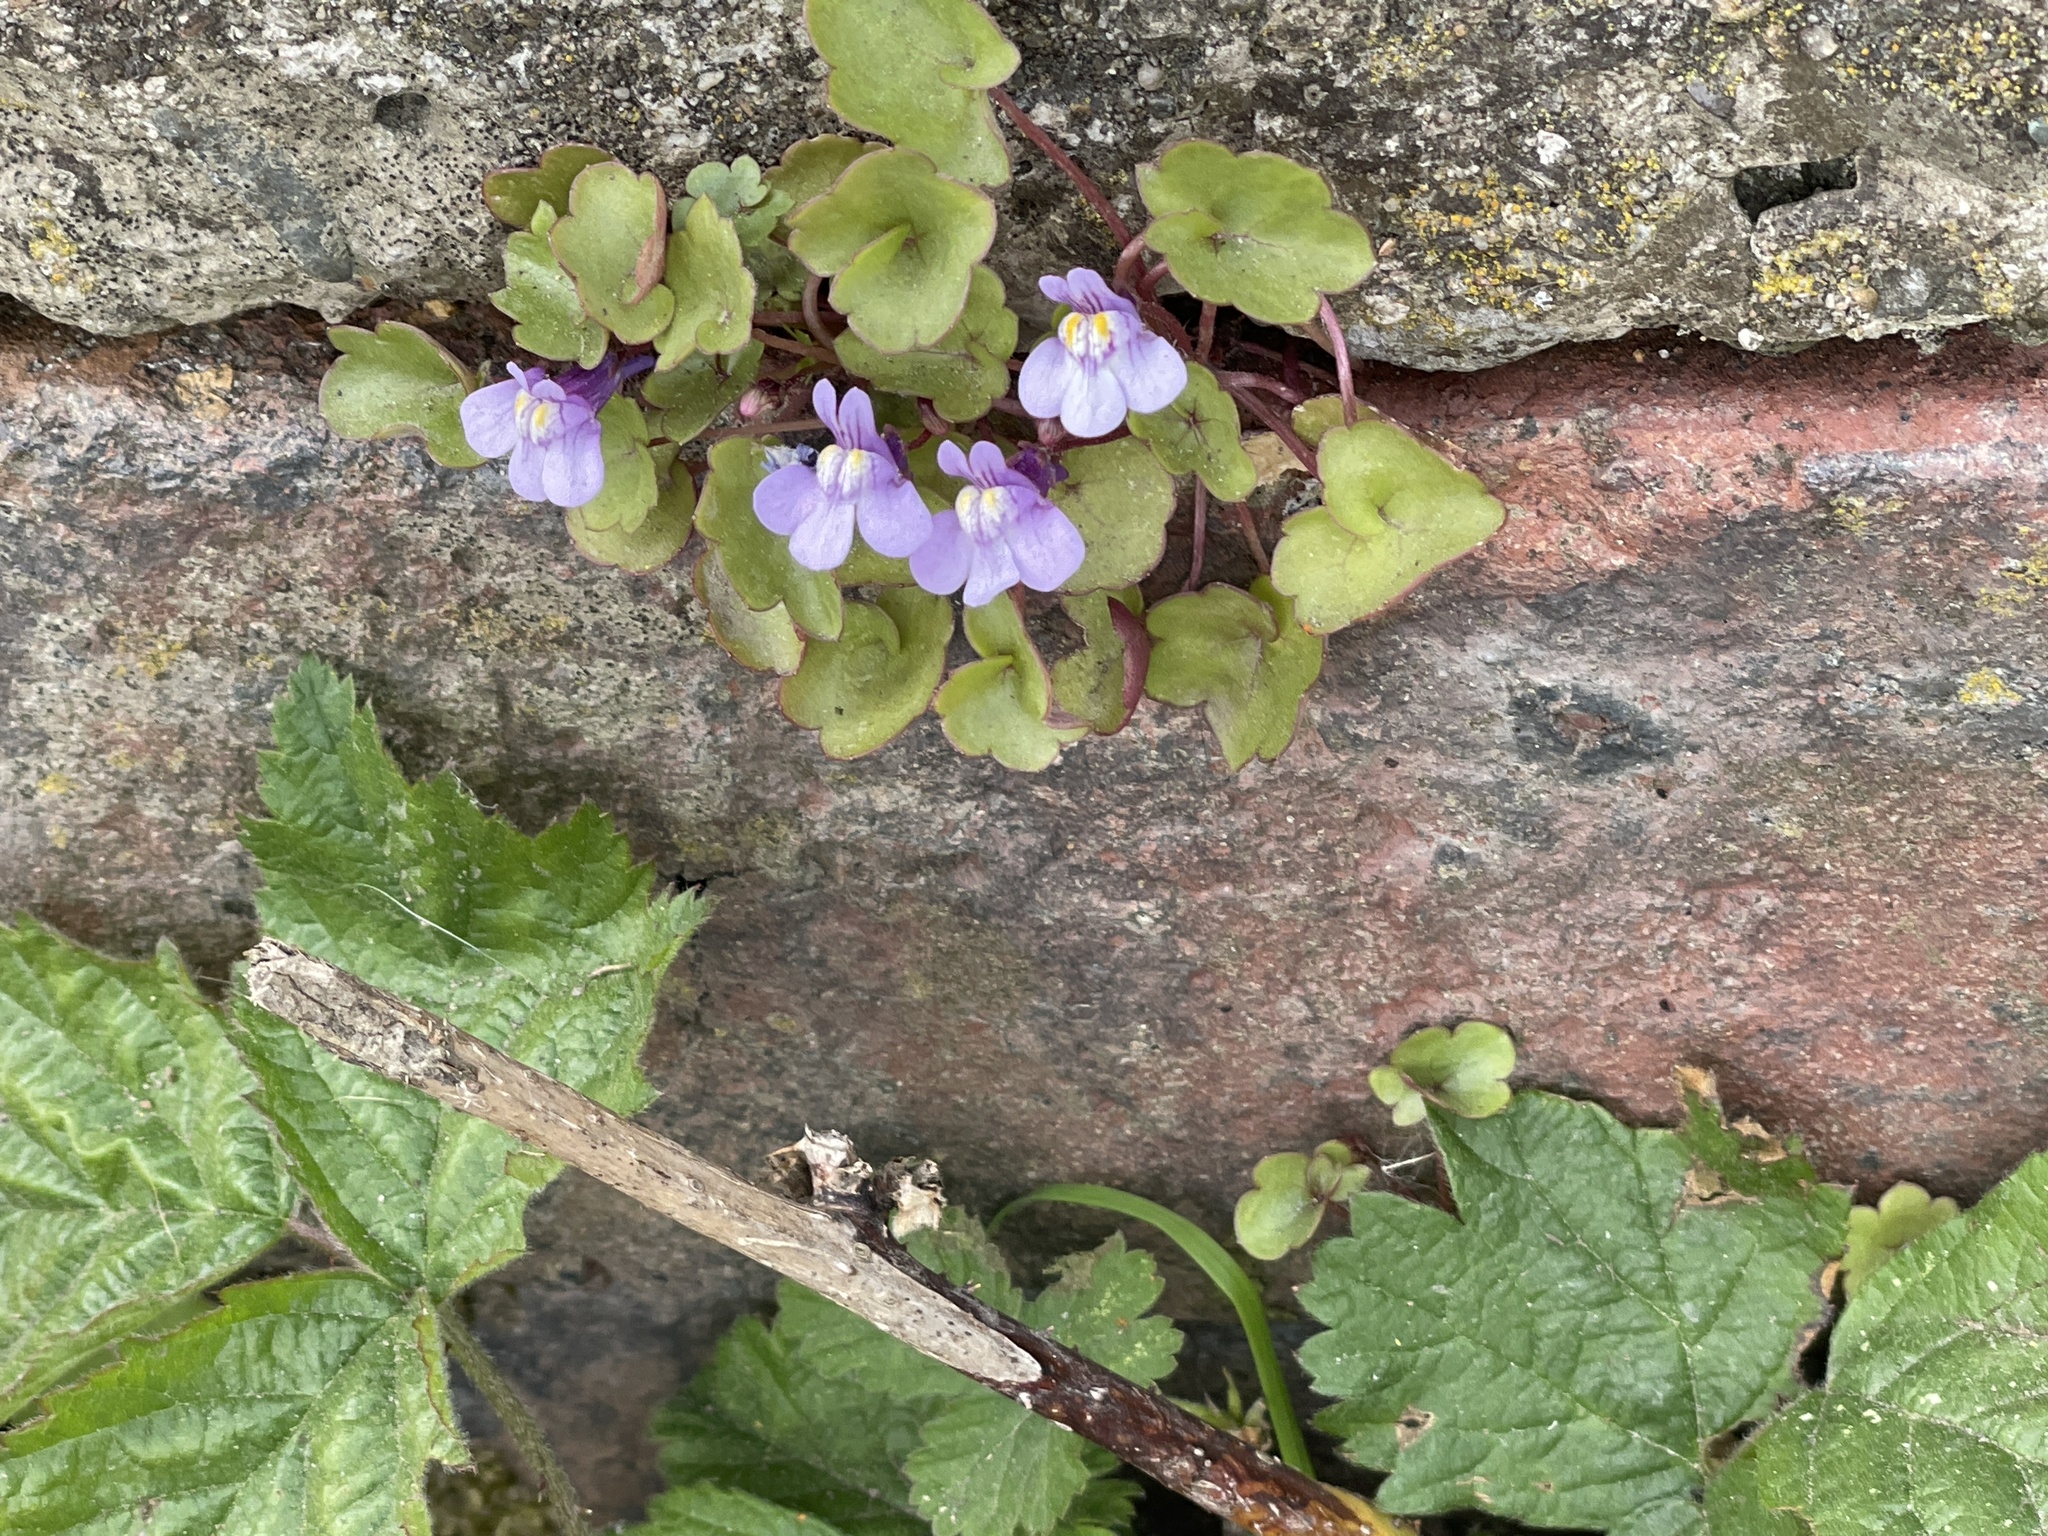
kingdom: Plantae
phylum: Tracheophyta
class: Magnoliopsida
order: Lamiales
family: Plantaginaceae
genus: Cymbalaria
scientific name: Cymbalaria muralis
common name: Ivy-leaved toadflax
